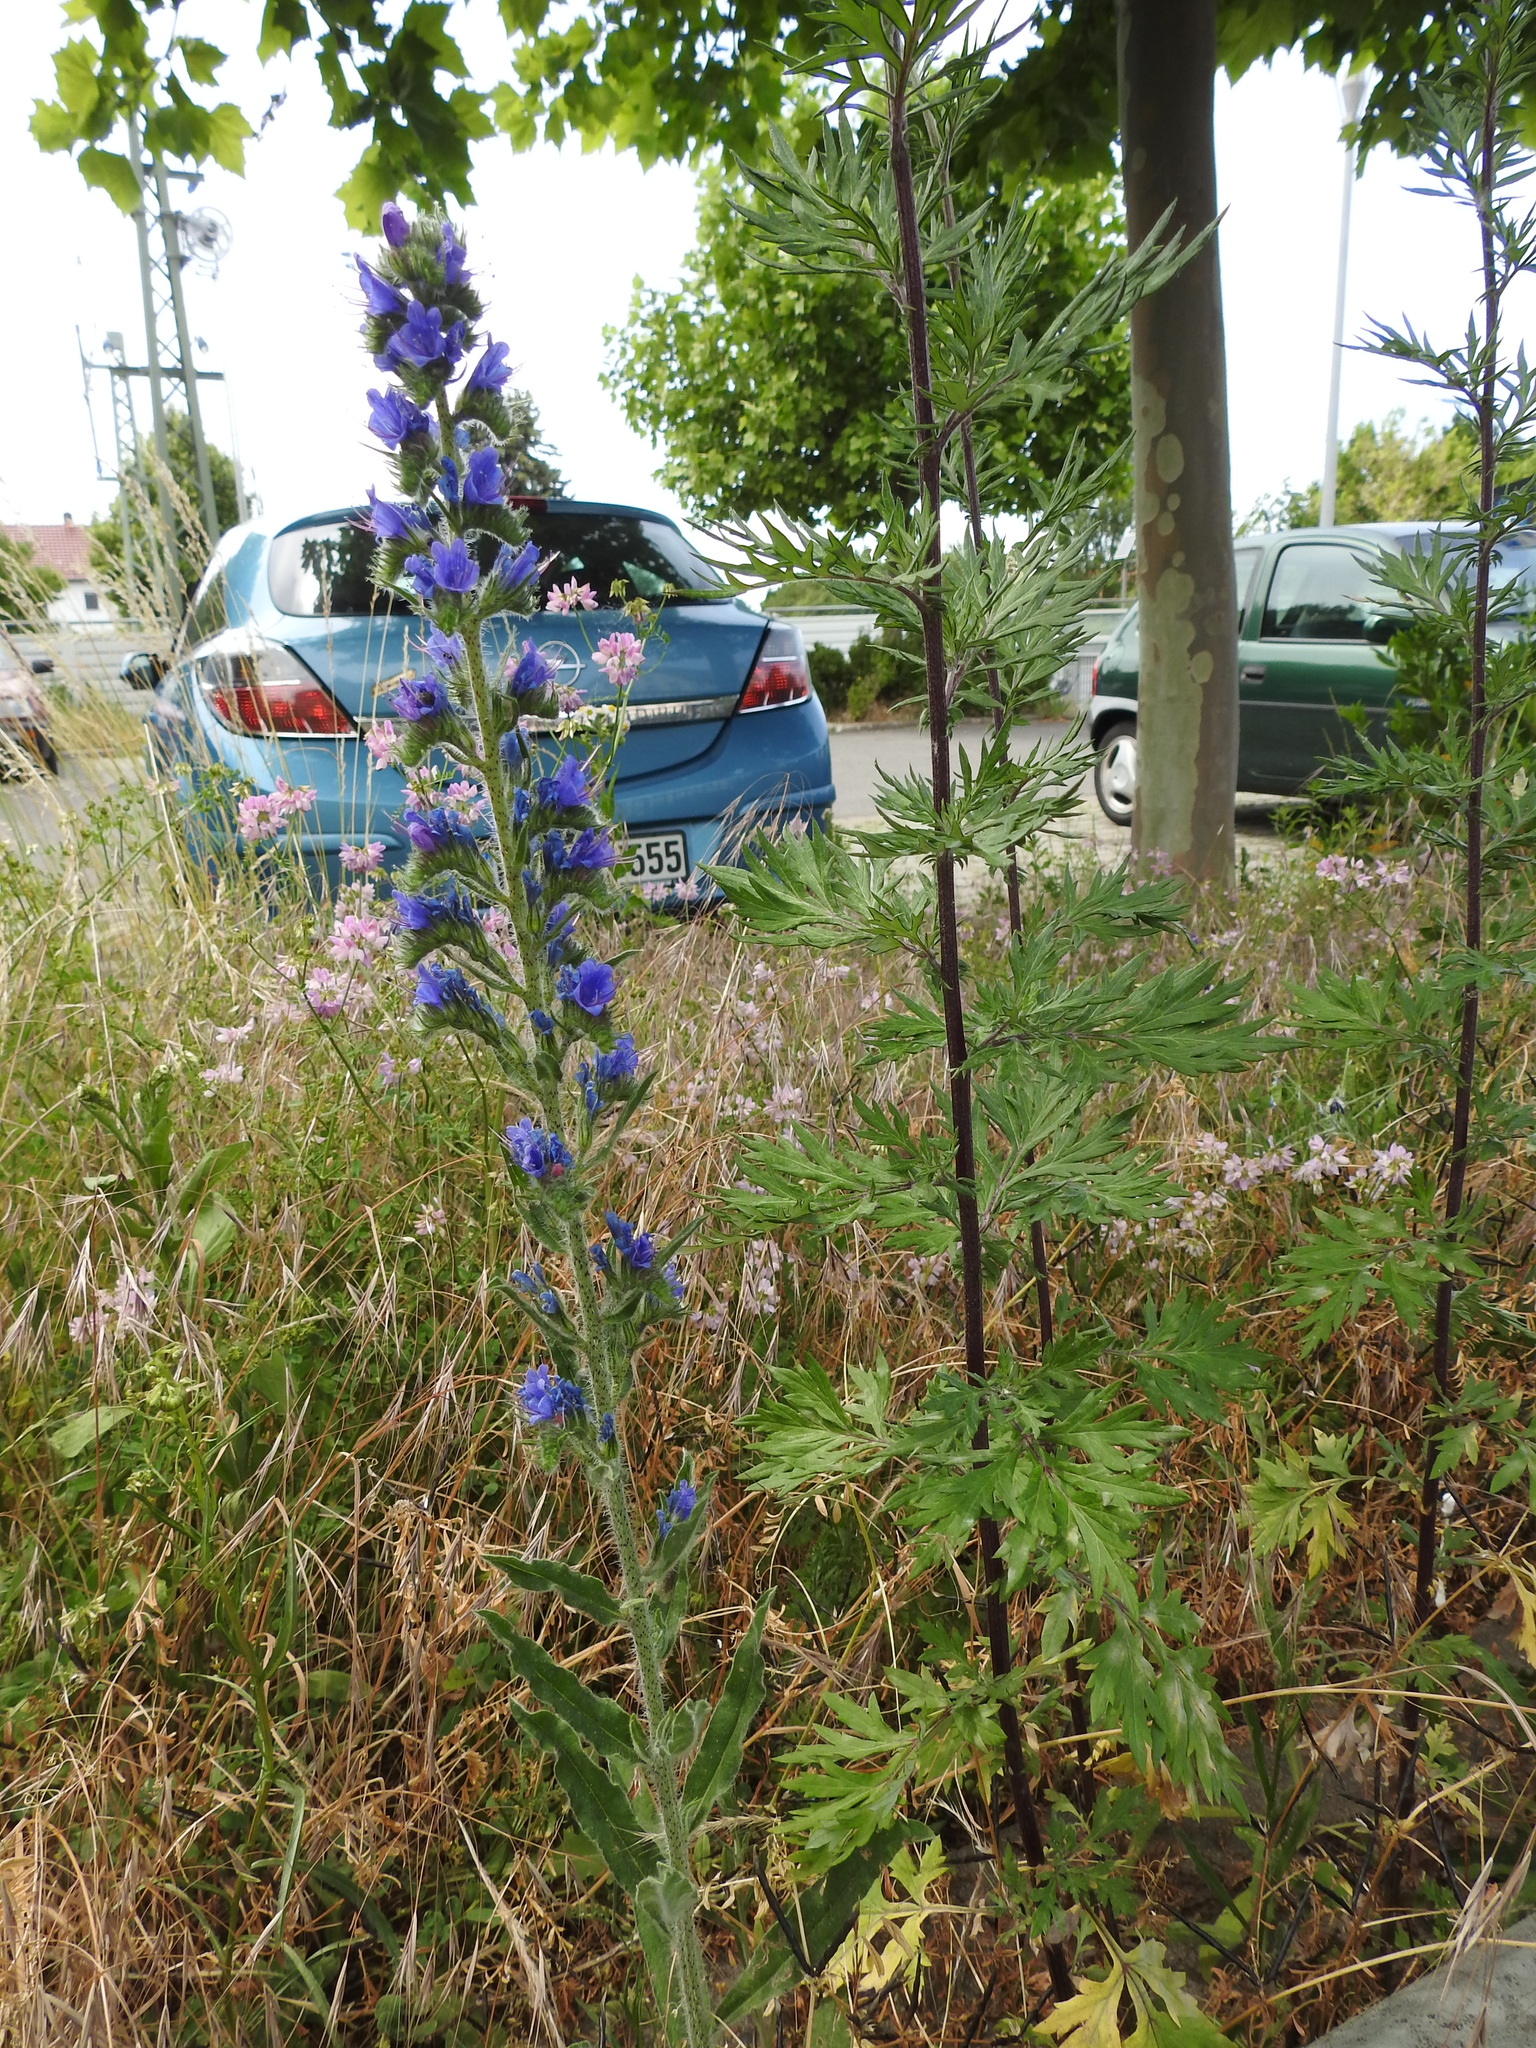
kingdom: Plantae
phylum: Tracheophyta
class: Magnoliopsida
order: Boraginales
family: Boraginaceae
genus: Echium
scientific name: Echium vulgare
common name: Common viper's bugloss
